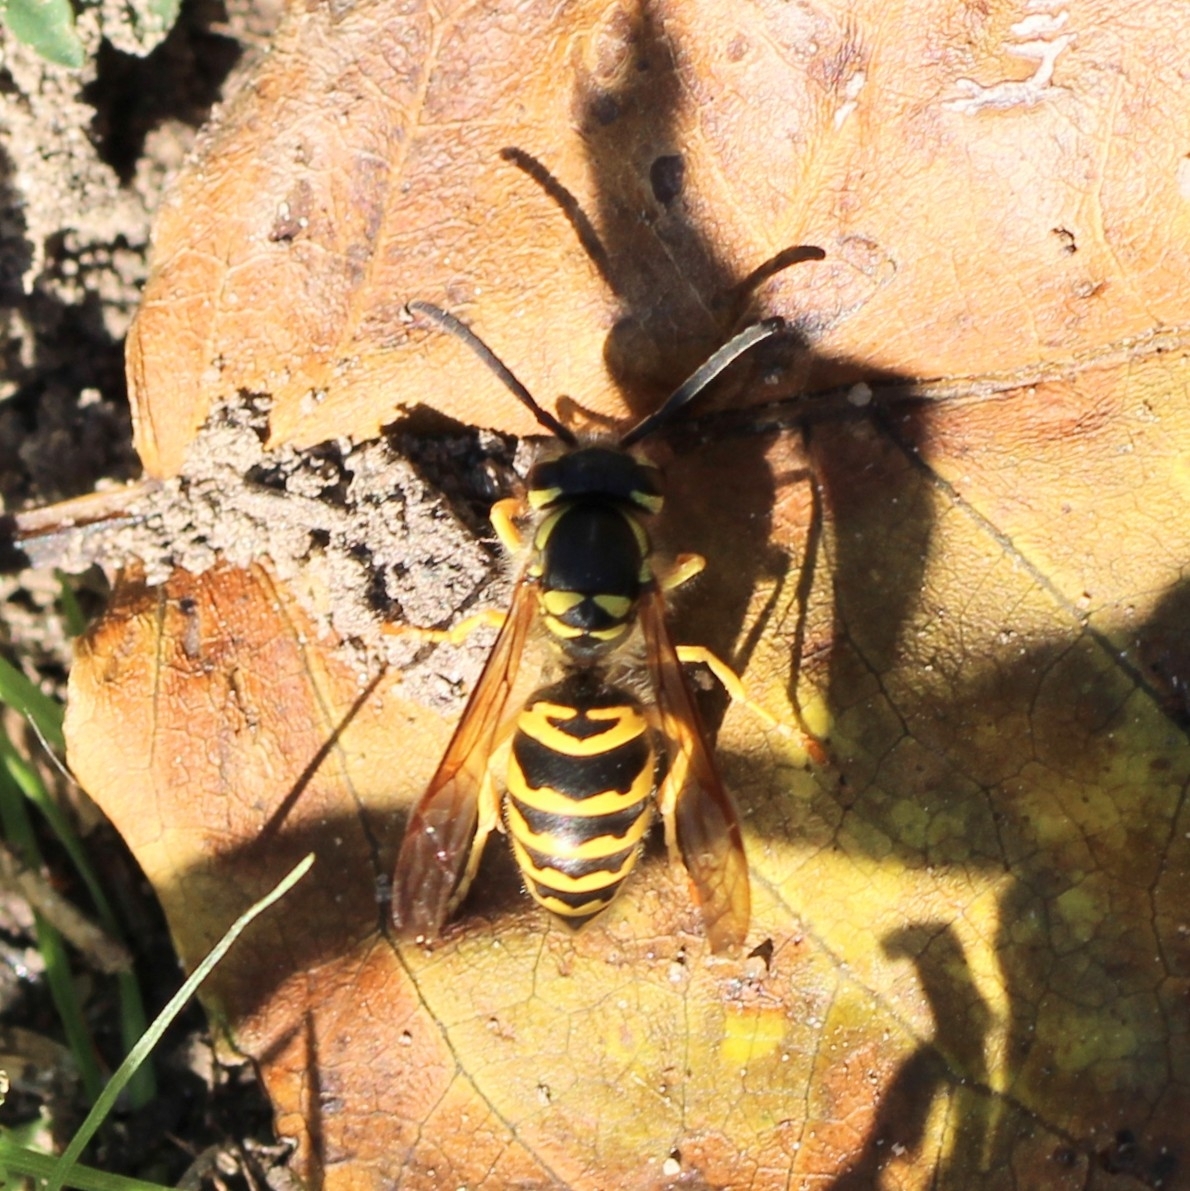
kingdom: Animalia
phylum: Arthropoda
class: Insecta
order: Hymenoptera
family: Vespidae
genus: Vespula
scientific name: Vespula maculifrons
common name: Eastern yellowjacket
